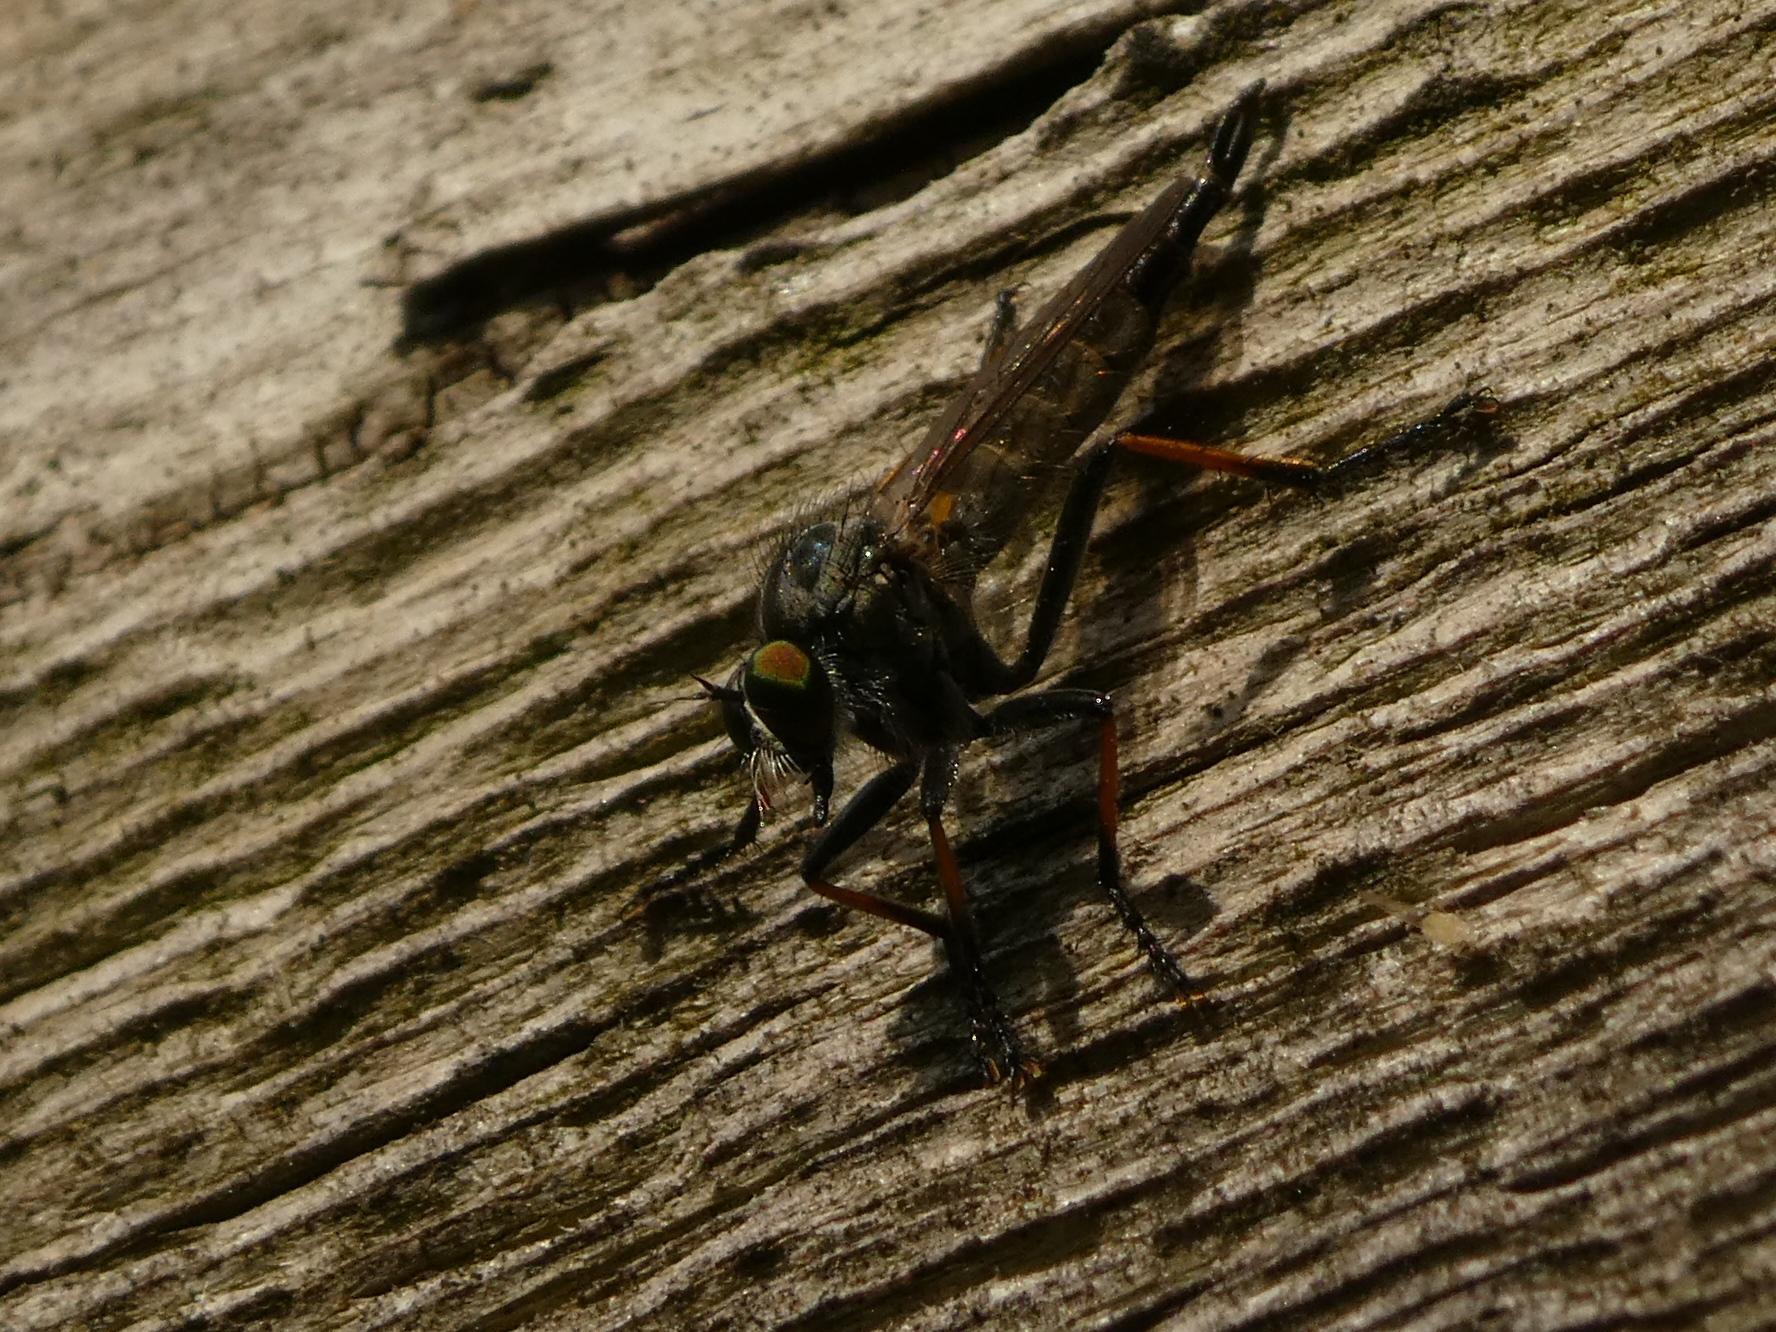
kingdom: Animalia
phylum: Arthropoda
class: Insecta
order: Diptera
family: Asilidae
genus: Neoitamus
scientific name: Neoitamus cyanurus
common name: Common awl robberfly
